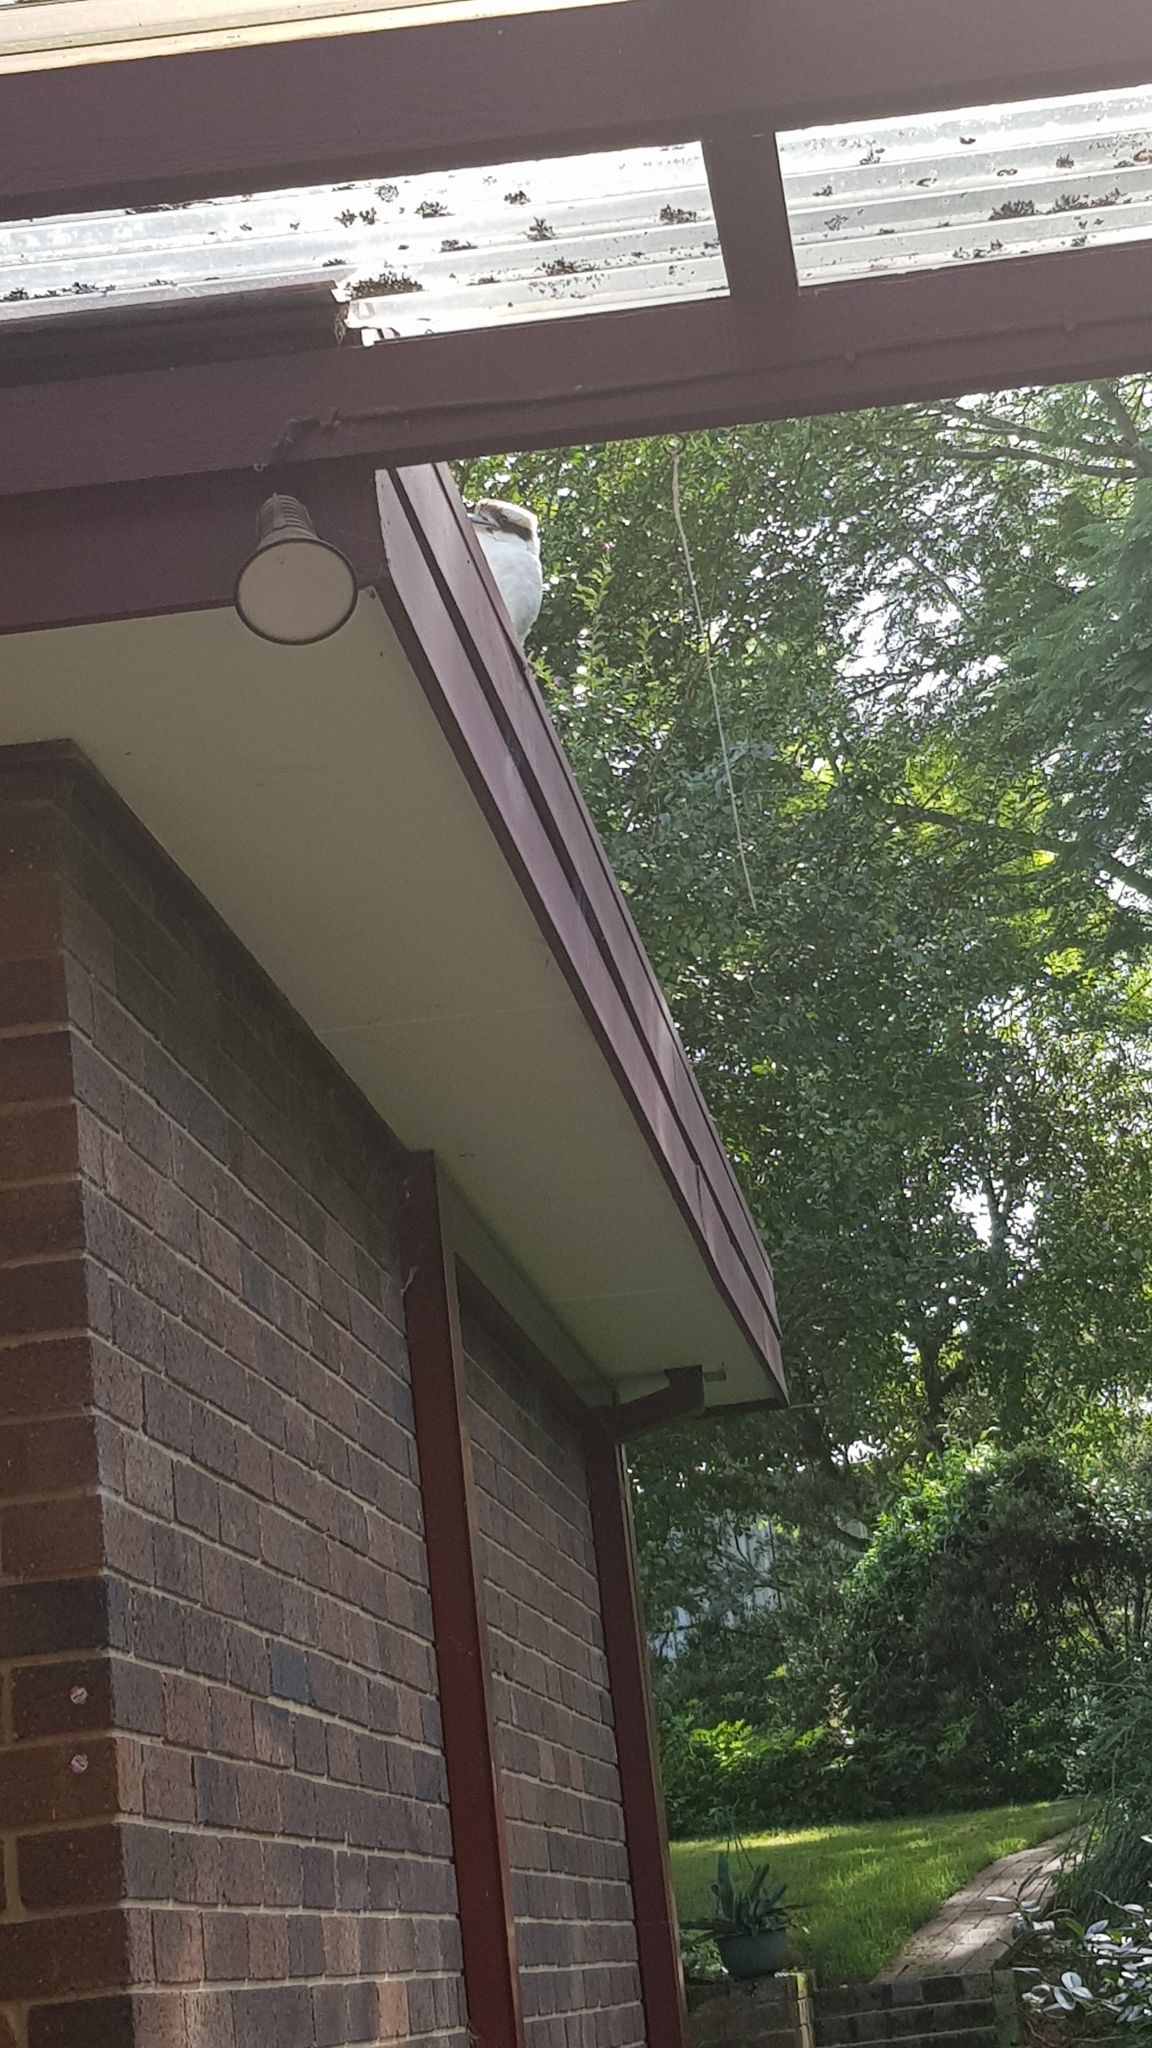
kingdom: Animalia
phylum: Chordata
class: Aves
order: Coraciiformes
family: Alcedinidae
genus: Dacelo
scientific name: Dacelo novaeguineae
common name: Laughing kookaburra
